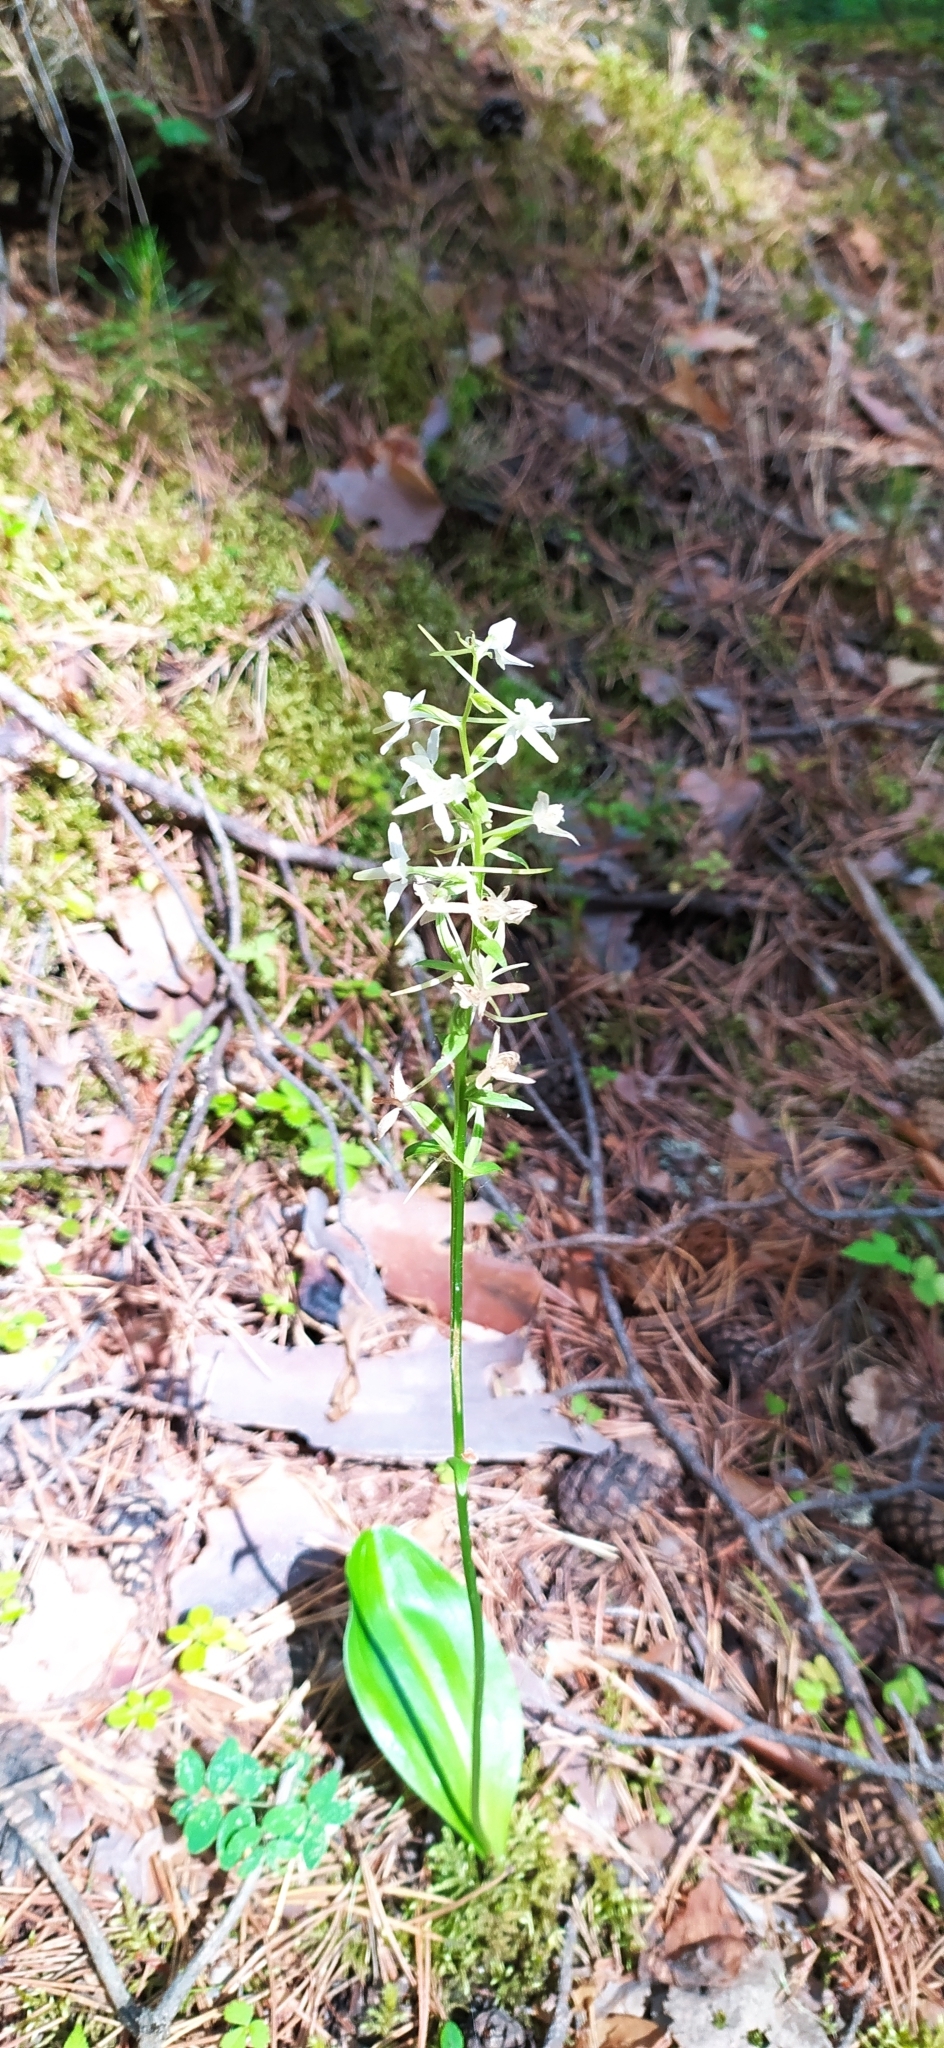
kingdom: Plantae
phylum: Tracheophyta
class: Liliopsida
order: Asparagales
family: Orchidaceae
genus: Platanthera
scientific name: Platanthera bifolia
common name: Lesser butterfly-orchid
